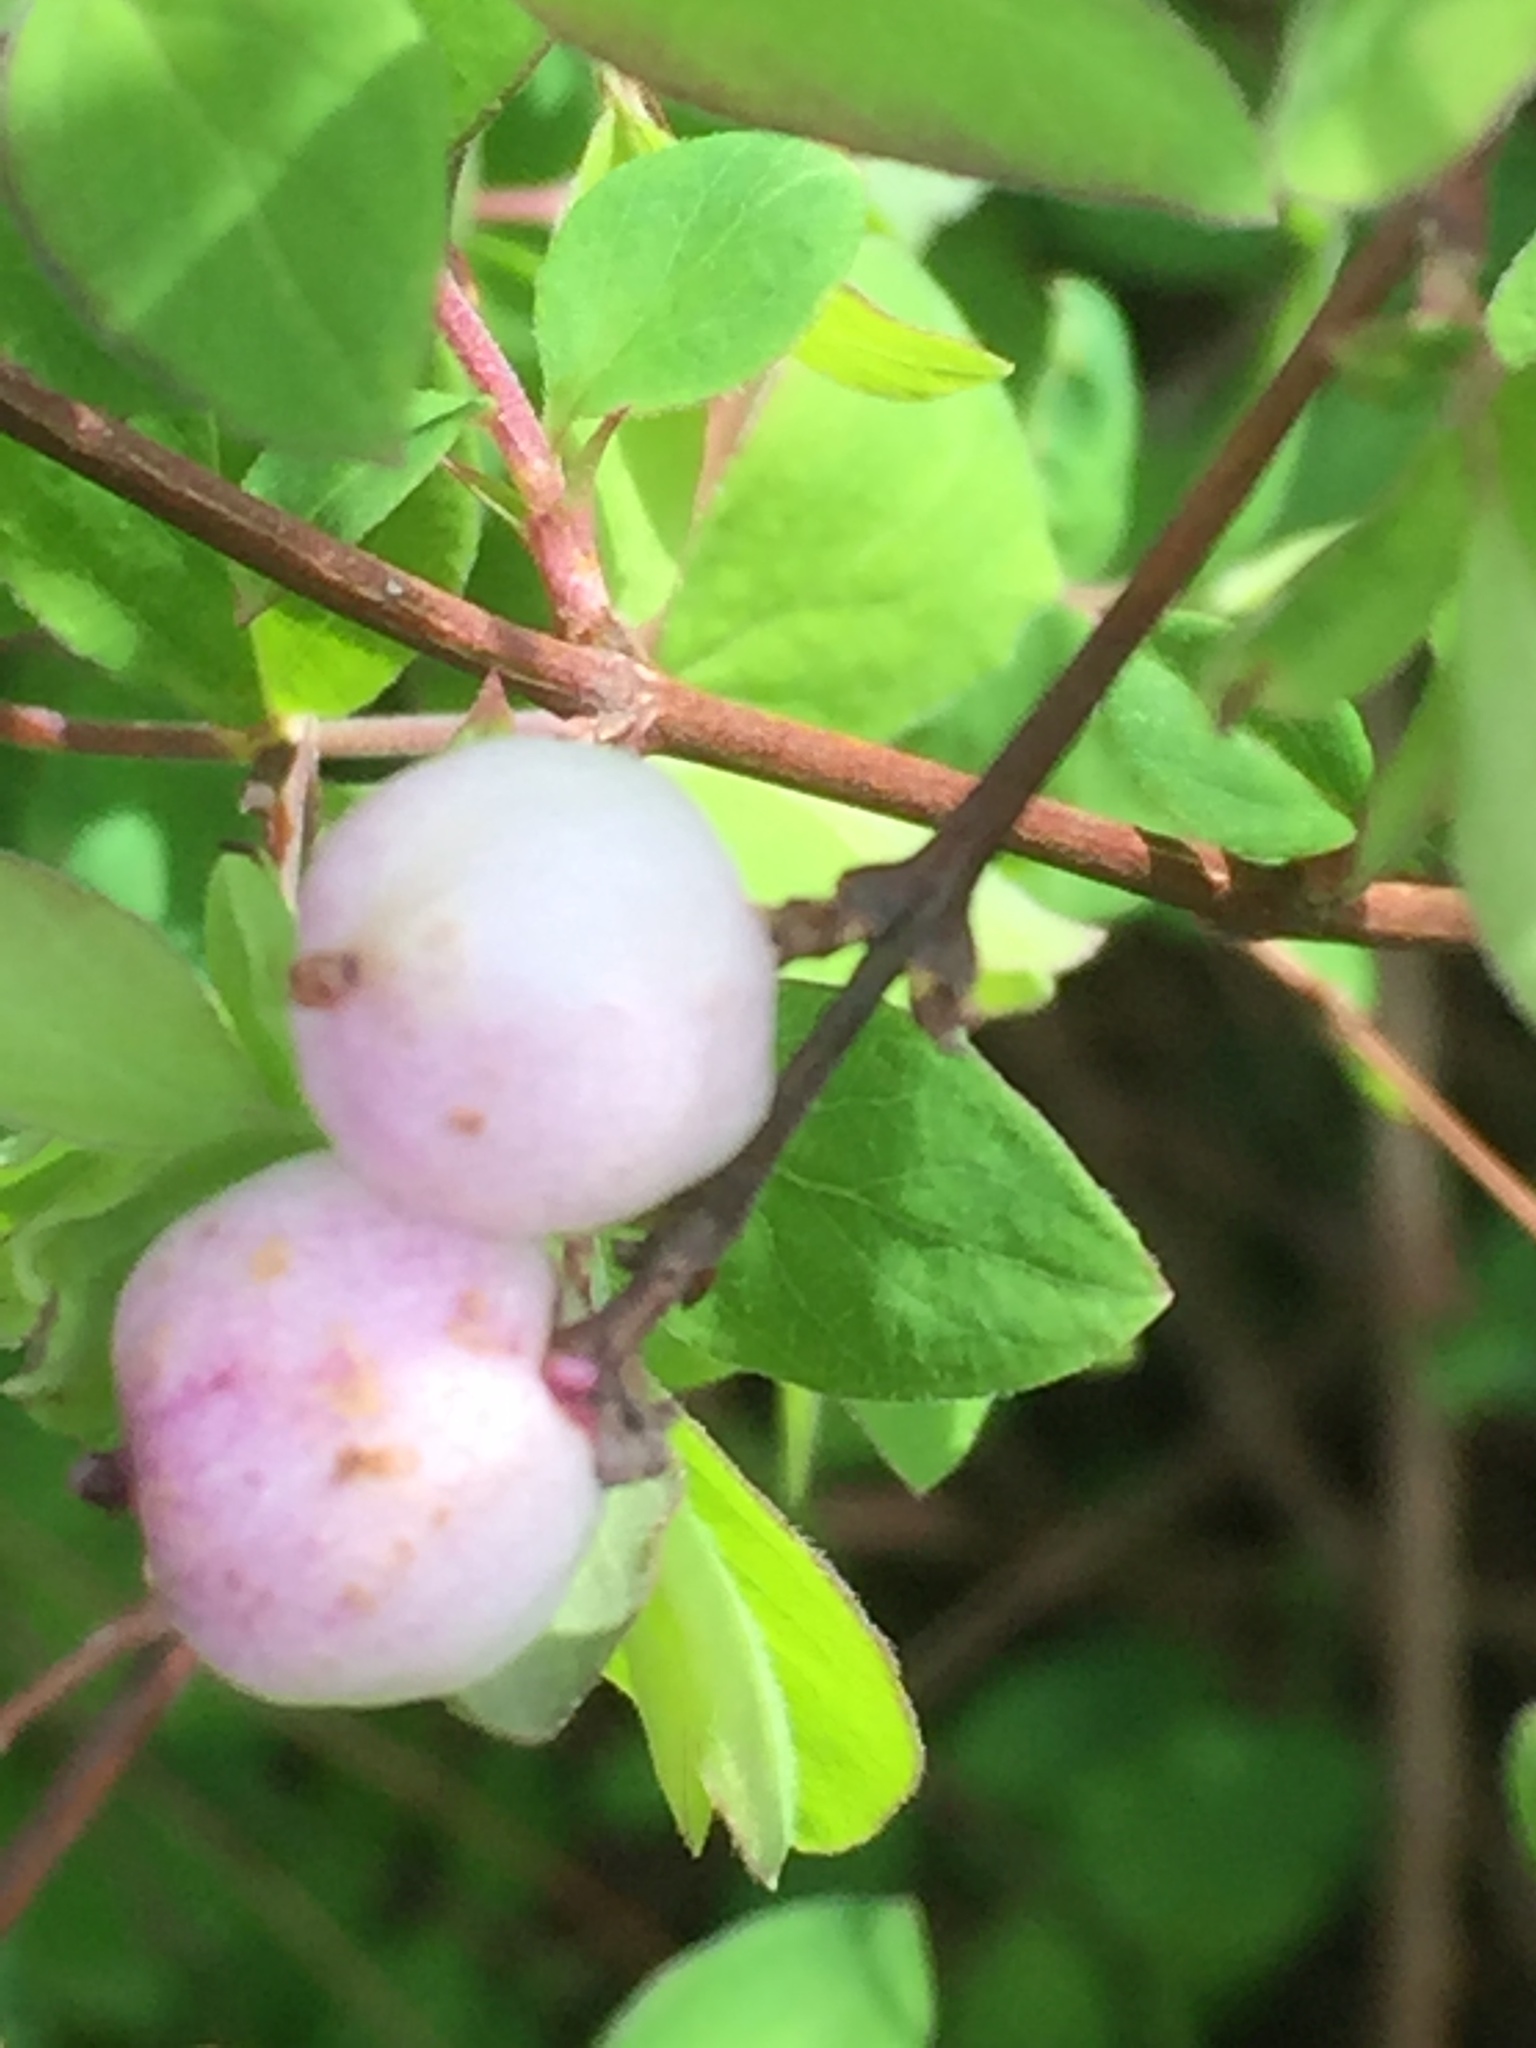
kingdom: Plantae
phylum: Tracheophyta
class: Magnoliopsida
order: Dipsacales
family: Caprifoliaceae
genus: Symphoricarpos
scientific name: Symphoricarpos albus
